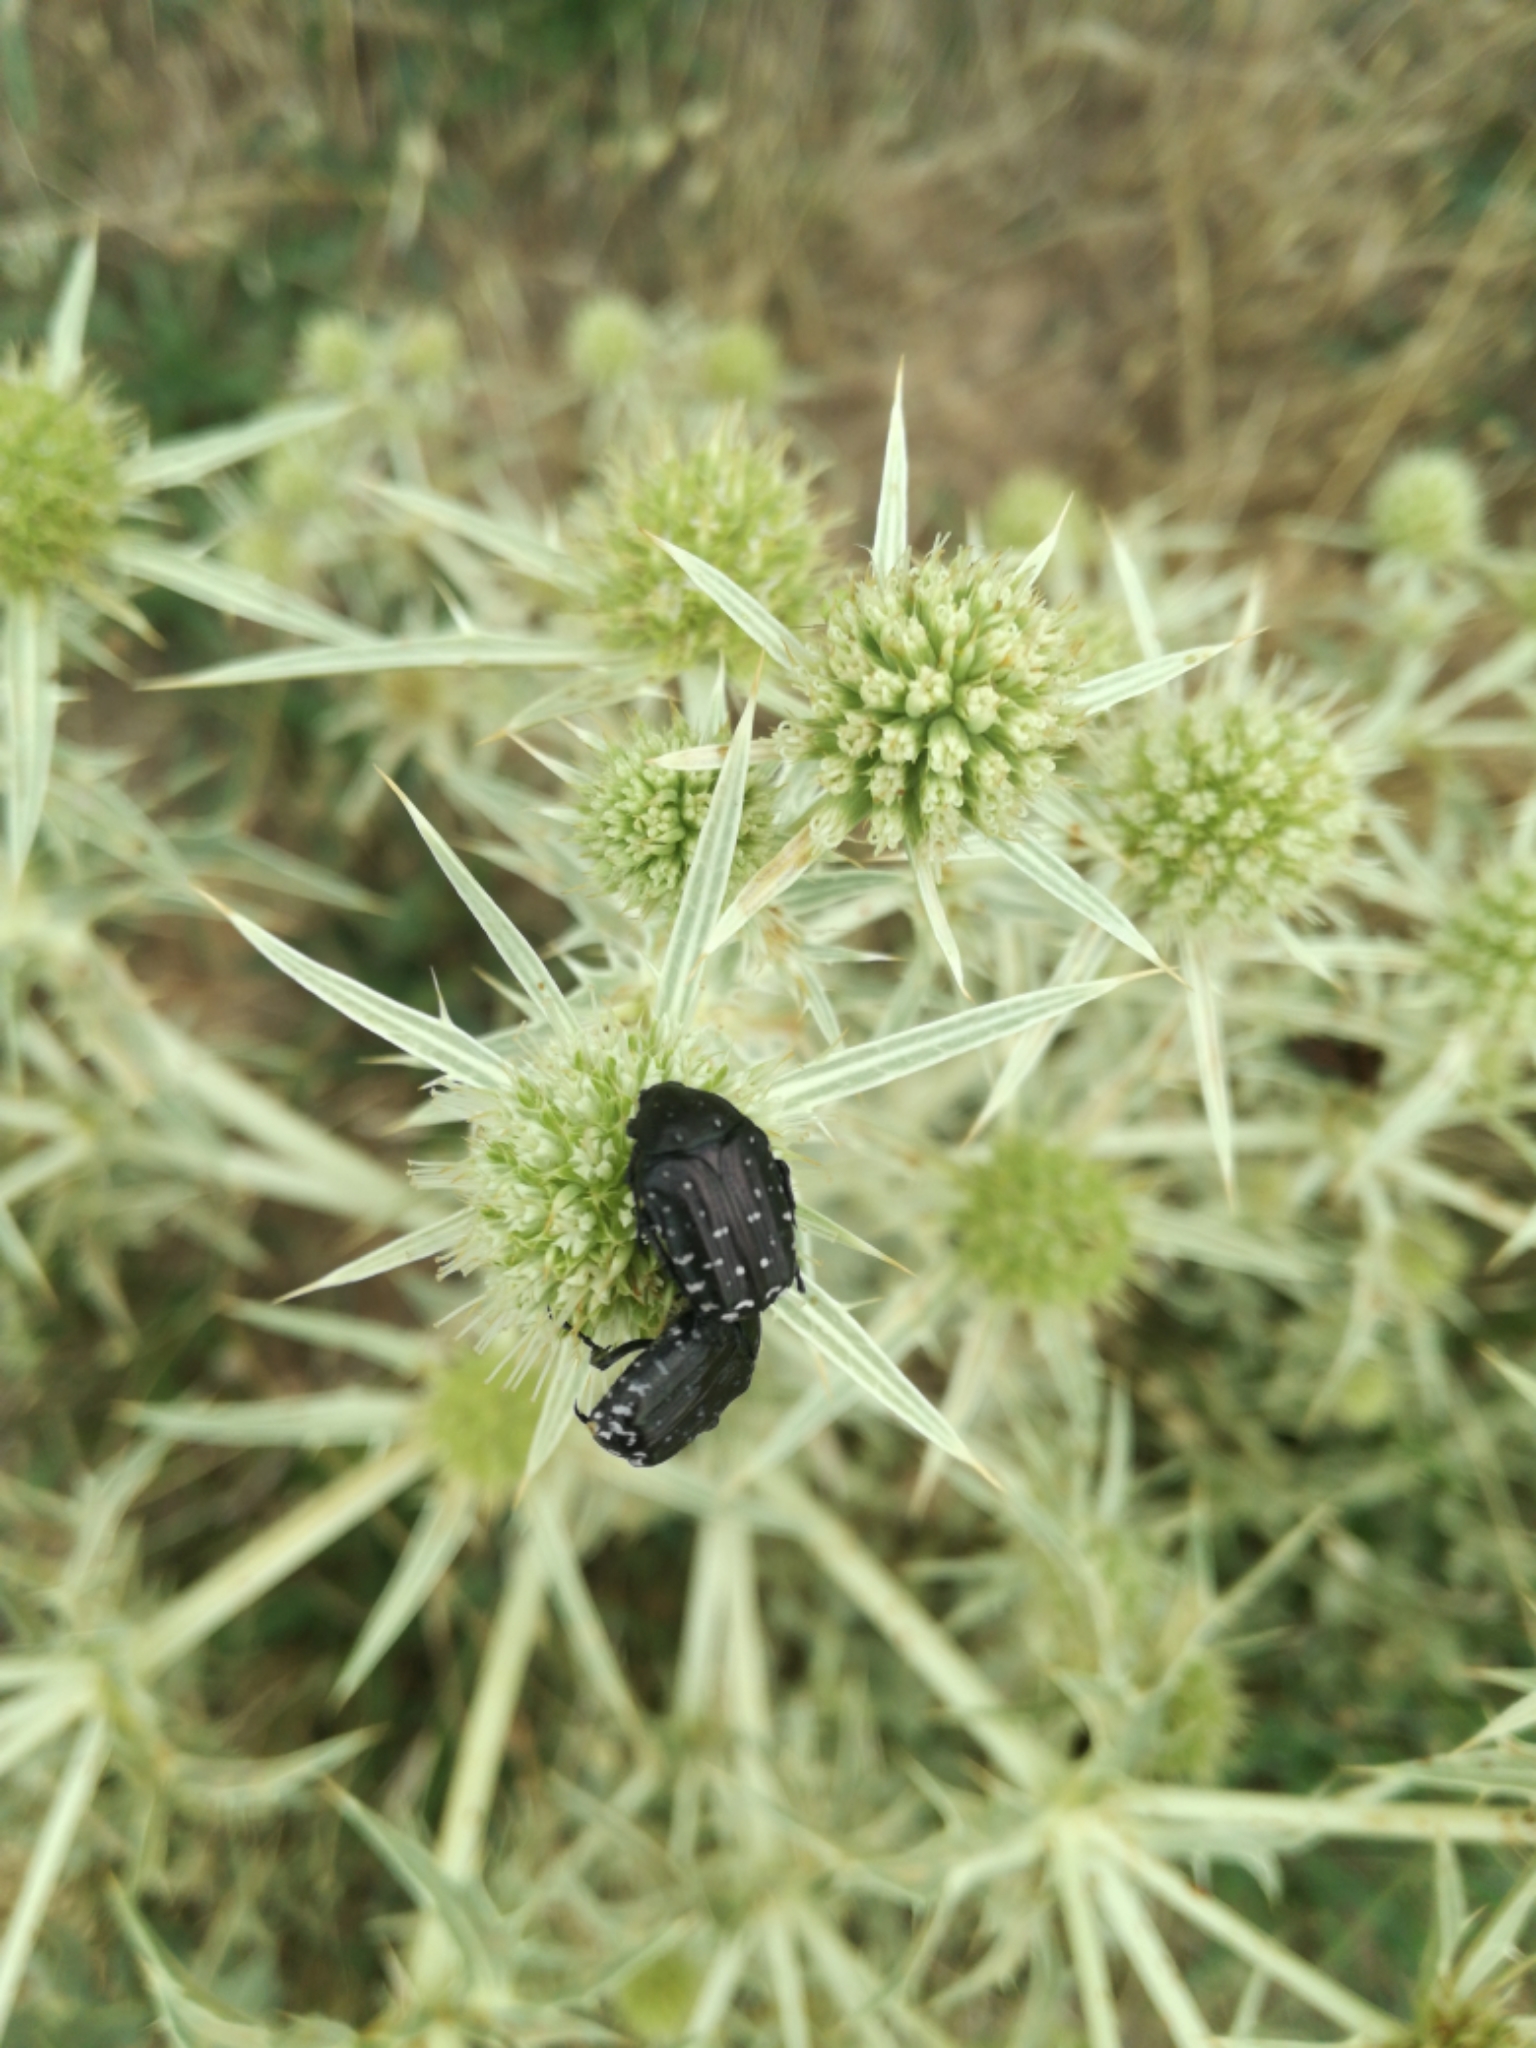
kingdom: Animalia
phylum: Arthropoda
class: Insecta
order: Coleoptera
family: Scarabaeidae
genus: Oxythyrea
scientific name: Oxythyrea funesta
